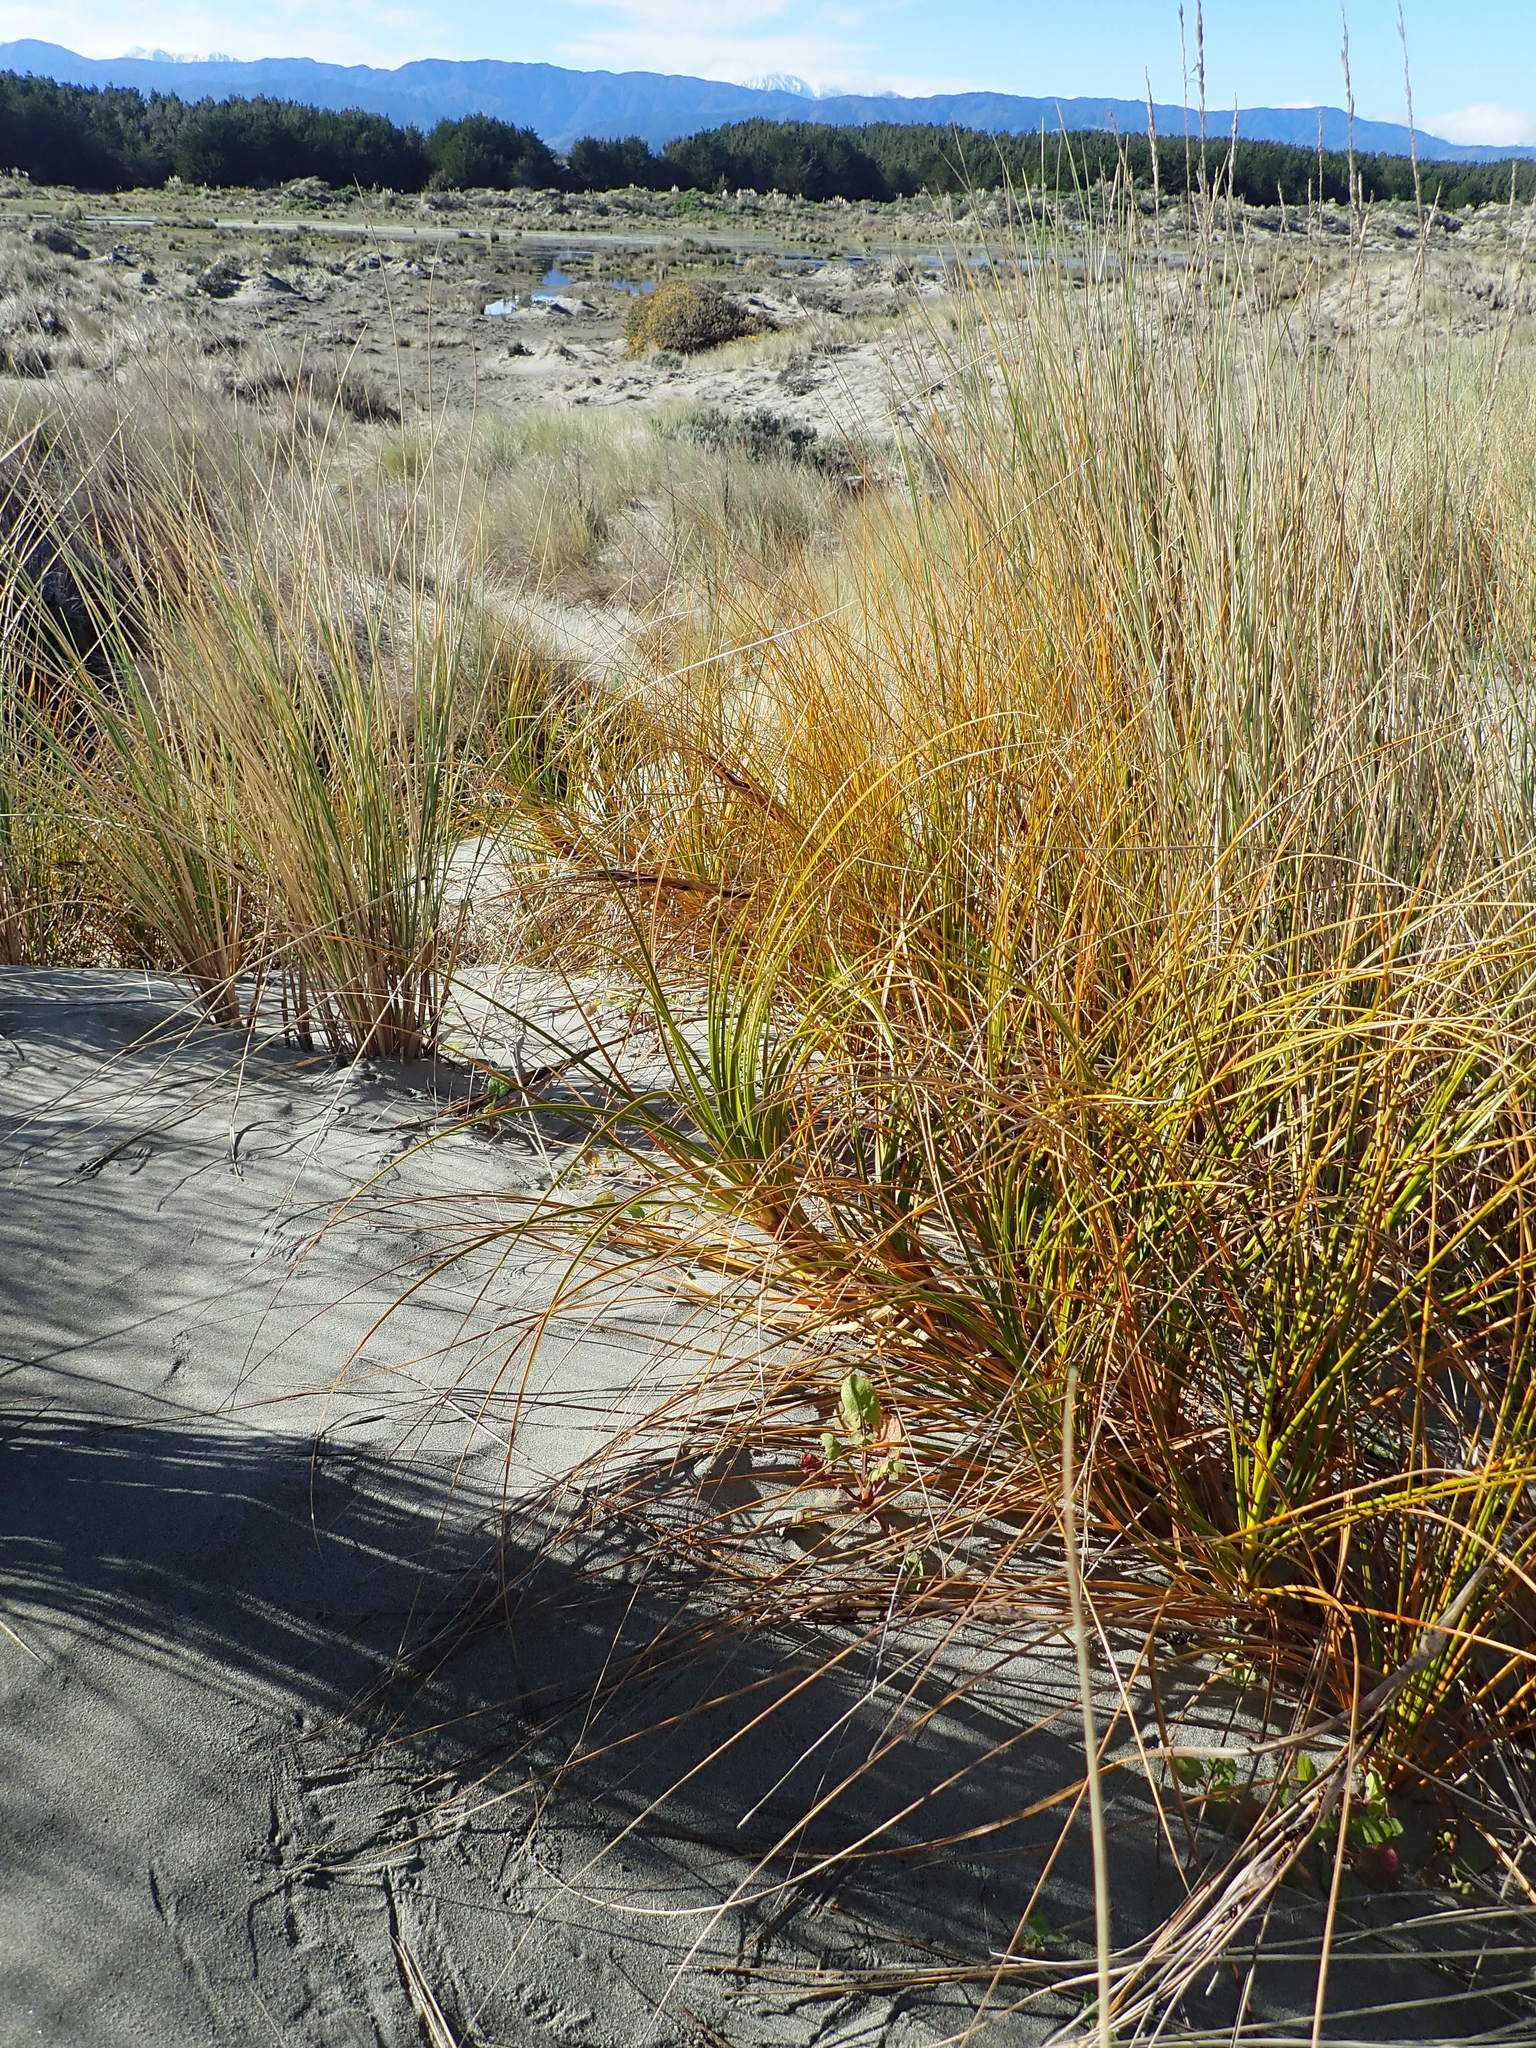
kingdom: Plantae
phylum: Tracheophyta
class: Liliopsida
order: Poales
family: Cyperaceae
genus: Ficinia
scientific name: Ficinia spiralis
